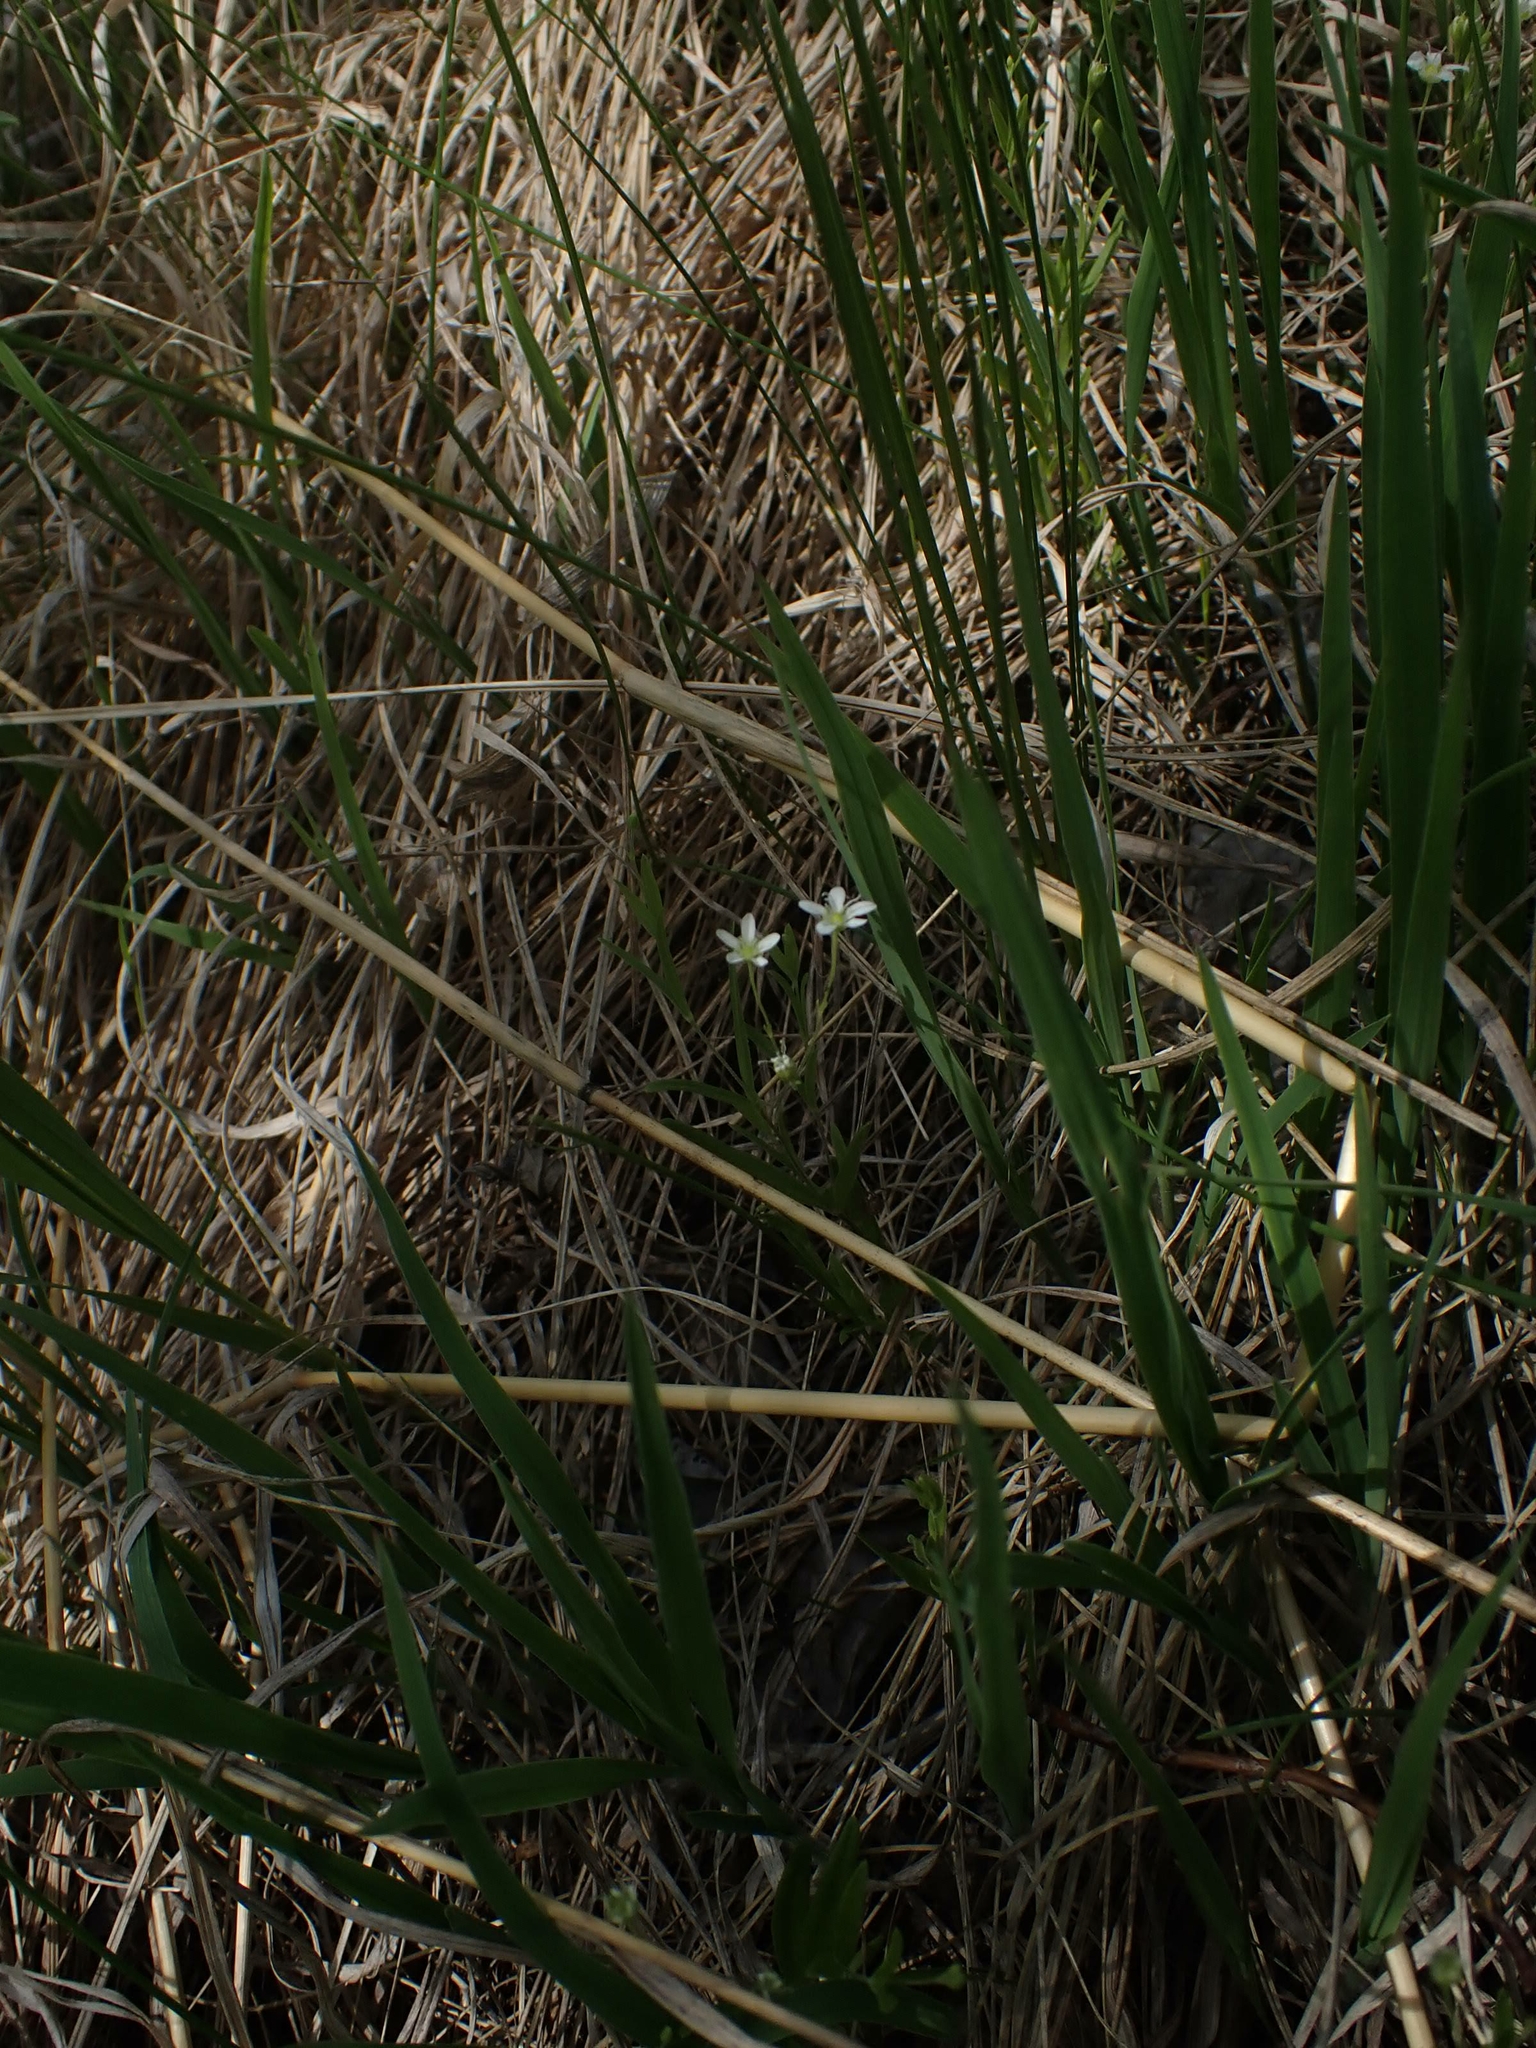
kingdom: Plantae
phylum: Tracheophyta
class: Magnoliopsida
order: Caryophyllales
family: Caryophyllaceae
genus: Moehringia
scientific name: Moehringia lateriflora
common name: Blunt-leaved sandwort
